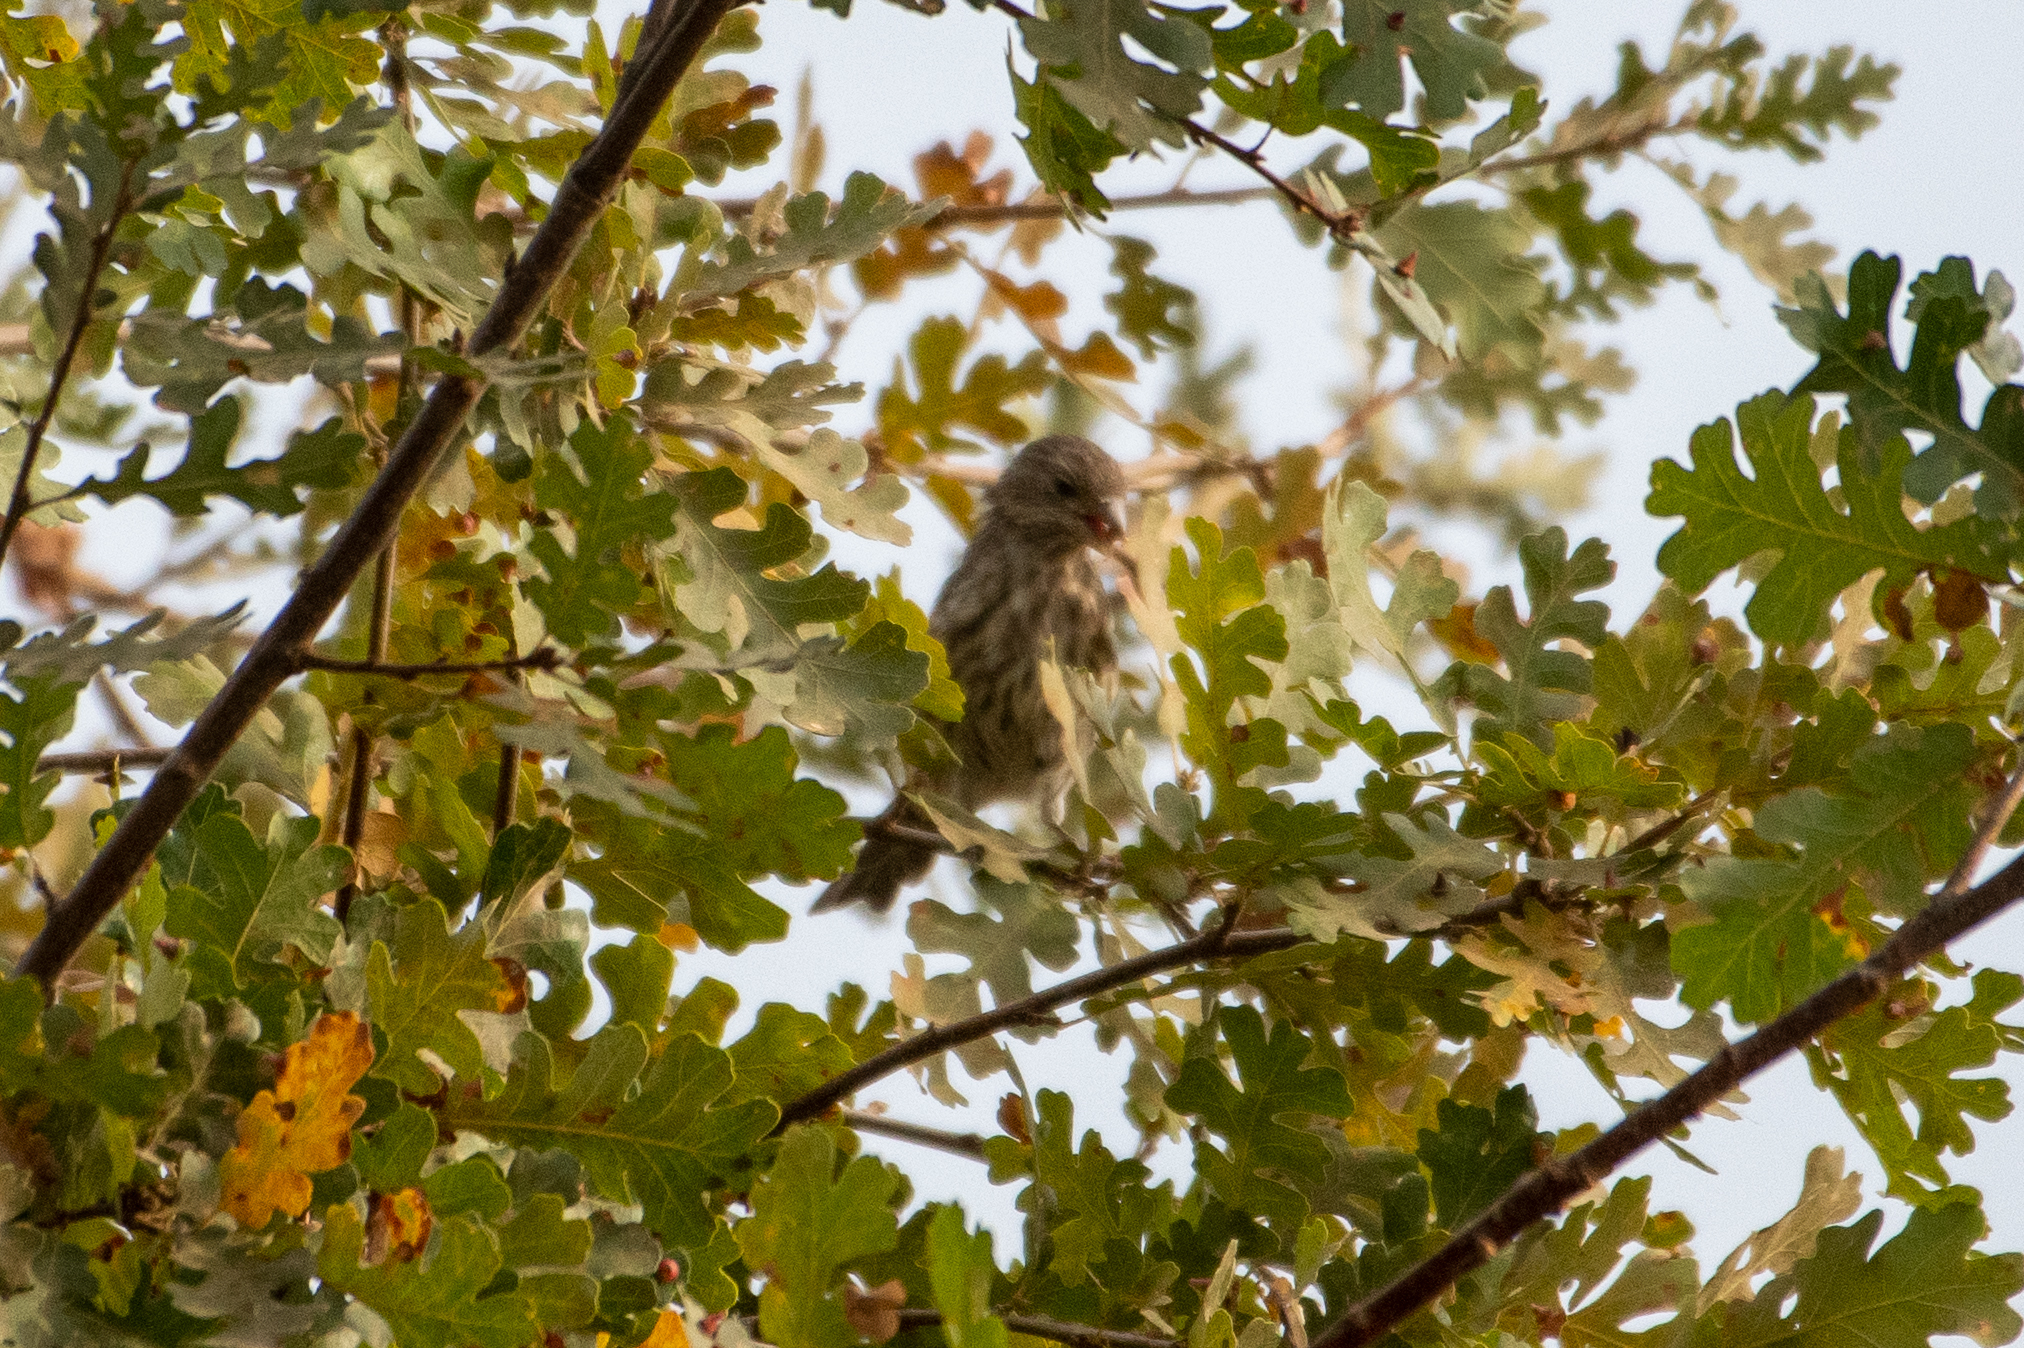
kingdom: Animalia
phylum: Chordata
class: Aves
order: Passeriformes
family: Fringillidae
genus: Haemorhous
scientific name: Haemorhous mexicanus
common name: House finch
